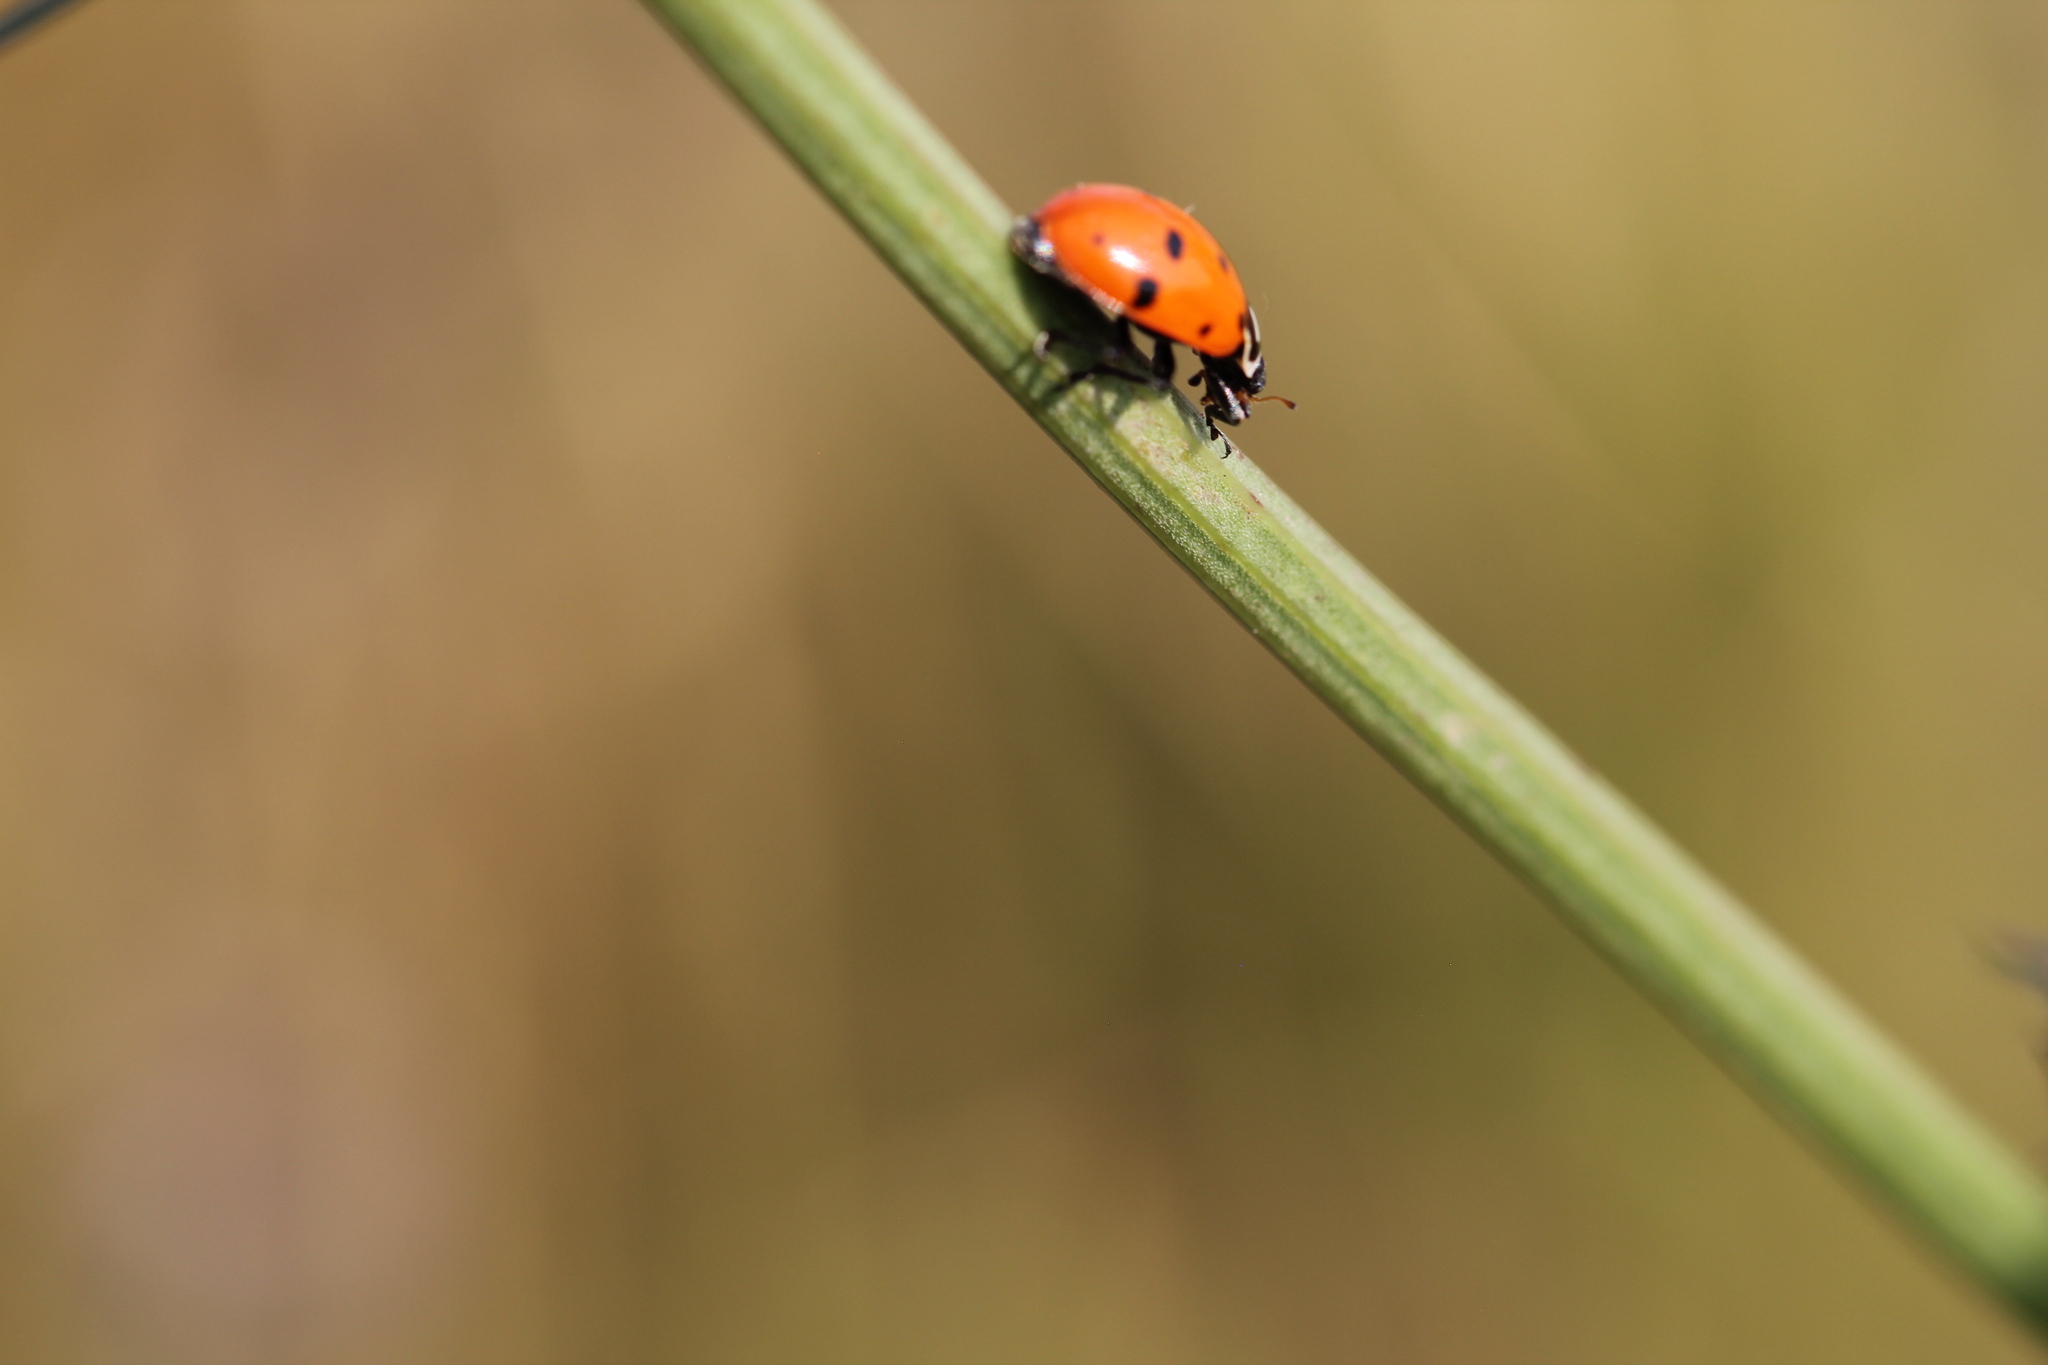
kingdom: Animalia
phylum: Arthropoda
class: Insecta
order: Coleoptera
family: Coccinellidae
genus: Hippodamia
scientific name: Hippodamia convergens
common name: Convergent lady beetle
